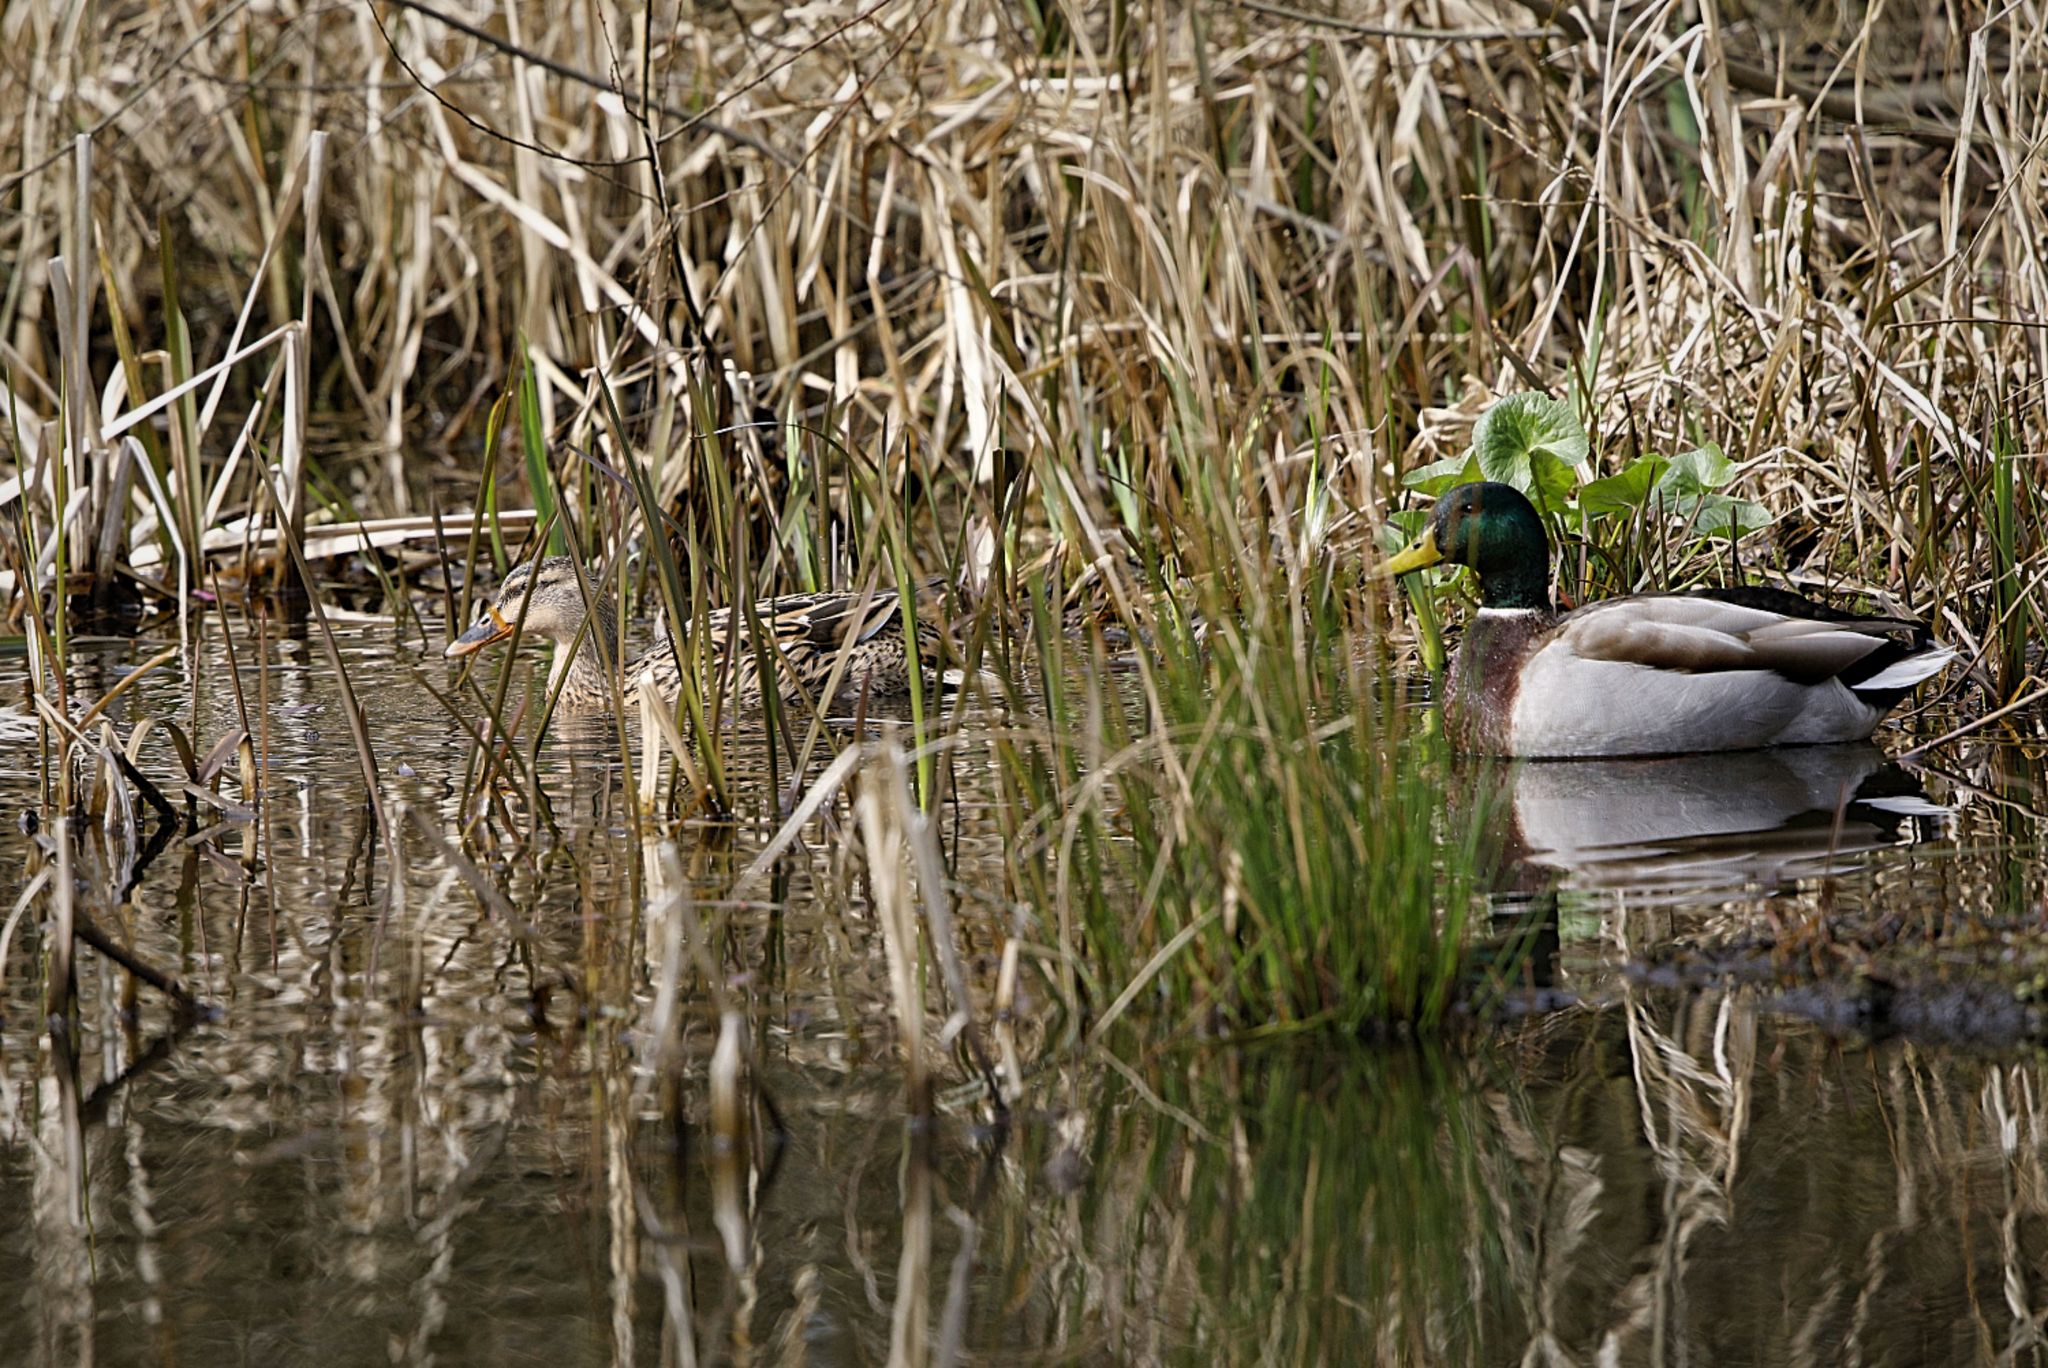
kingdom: Animalia
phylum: Chordata
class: Aves
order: Anseriformes
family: Anatidae
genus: Anas
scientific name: Anas platyrhynchos
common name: Mallard
